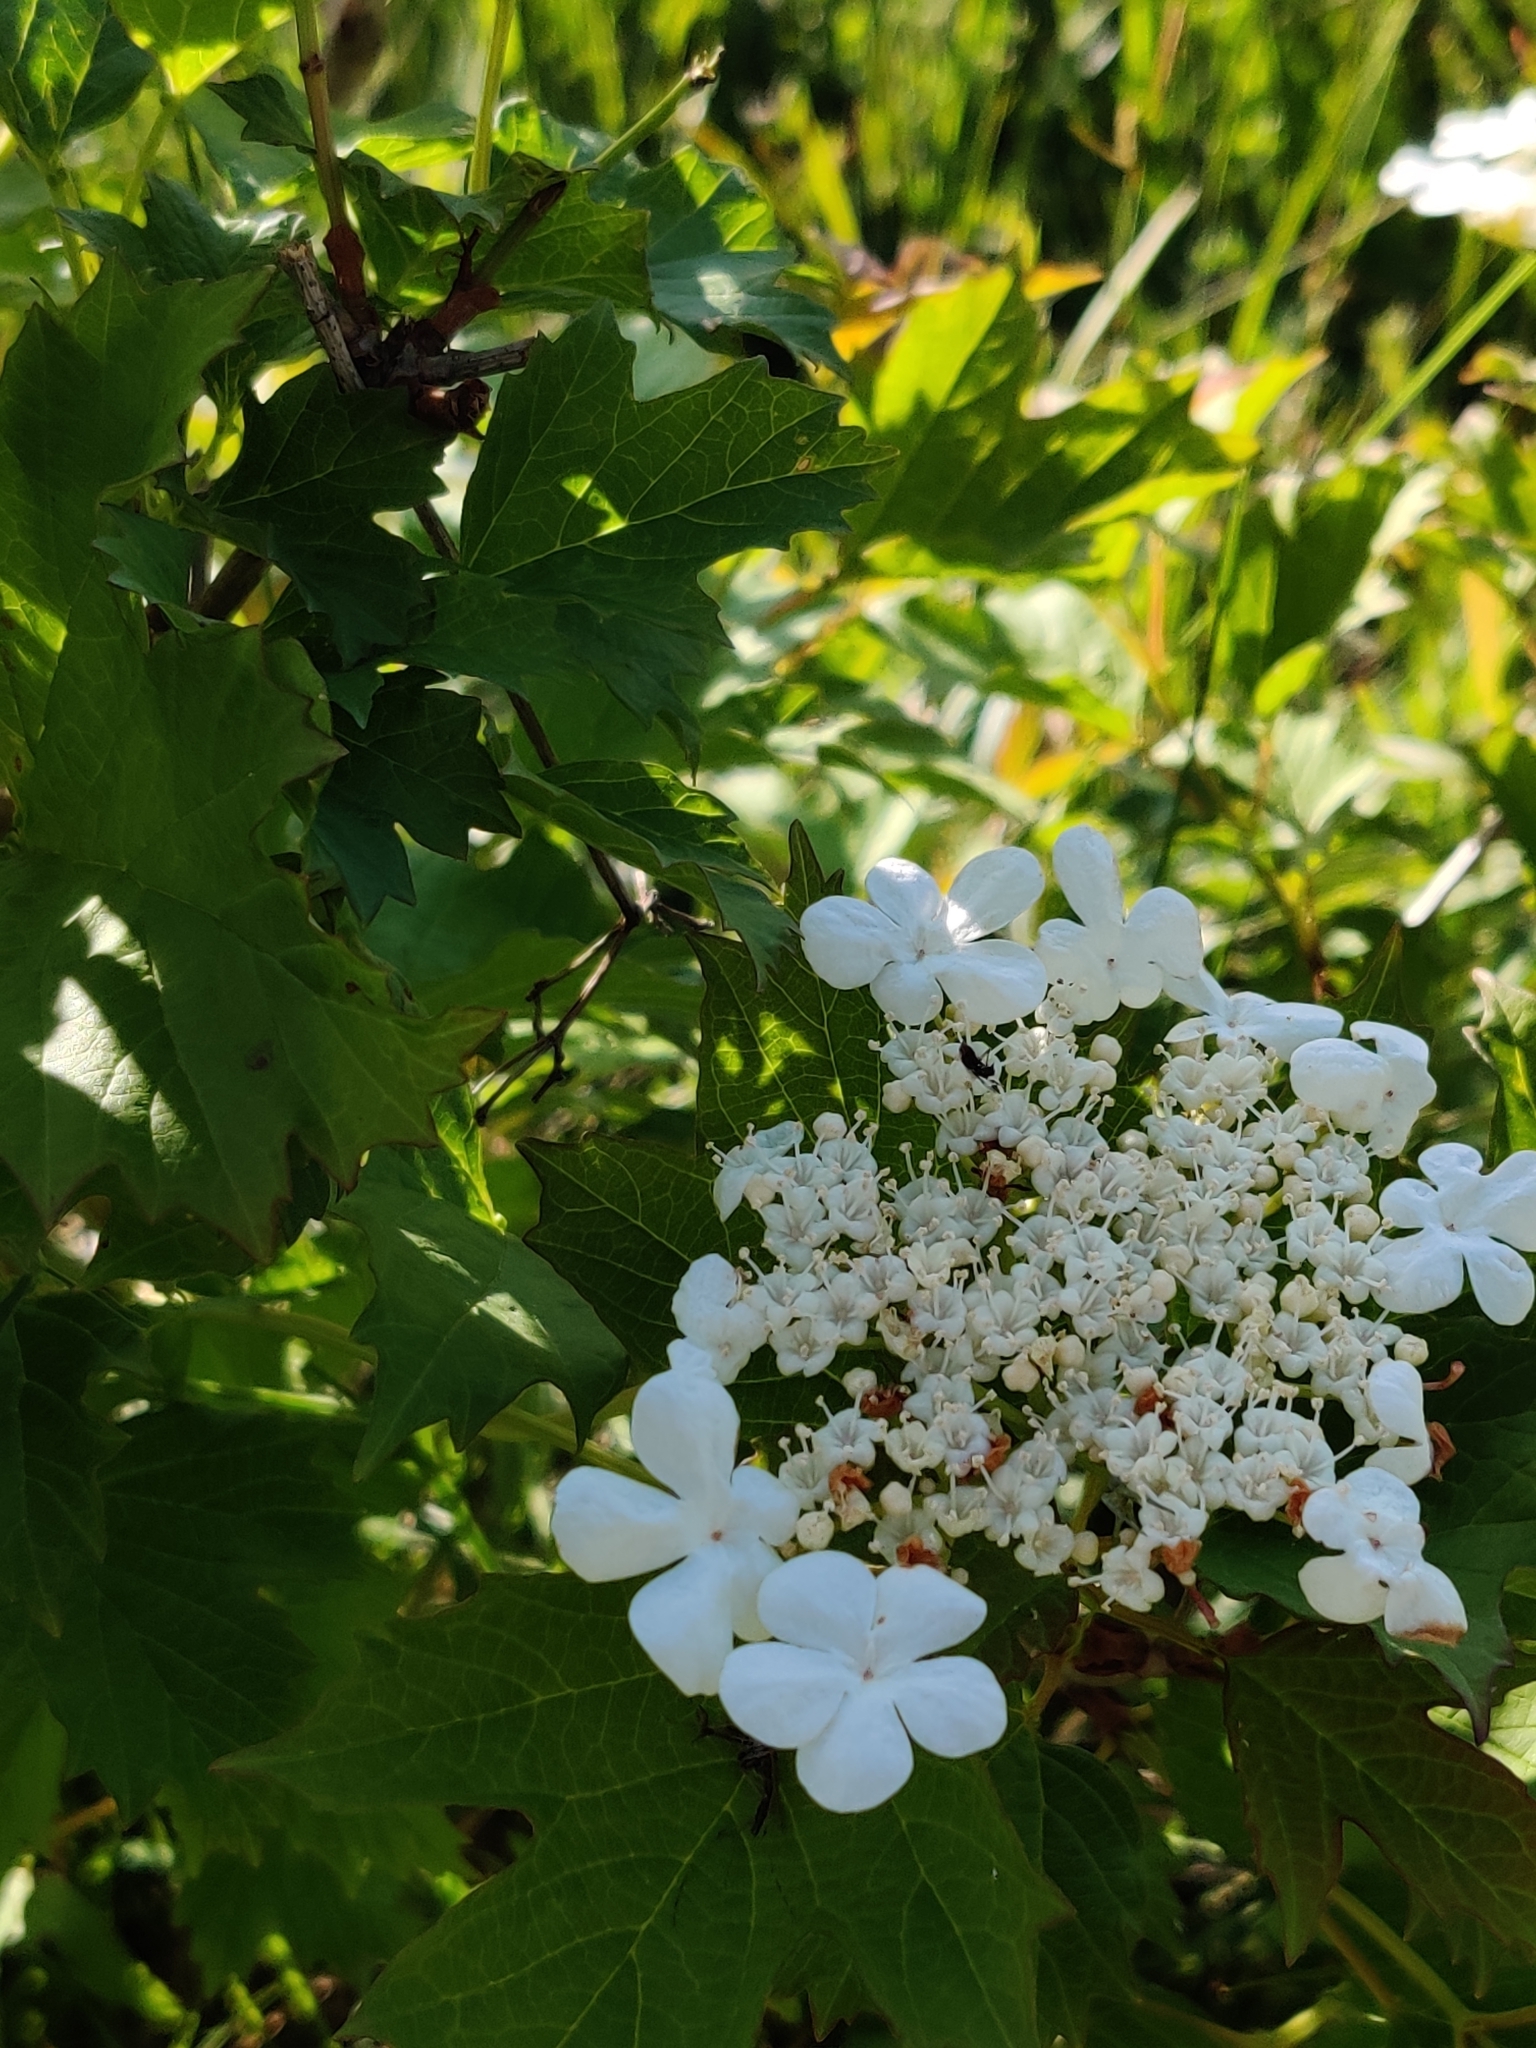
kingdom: Plantae
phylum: Tracheophyta
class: Magnoliopsida
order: Dipsacales
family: Viburnaceae
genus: Viburnum
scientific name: Viburnum opulus
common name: Guelder-rose
